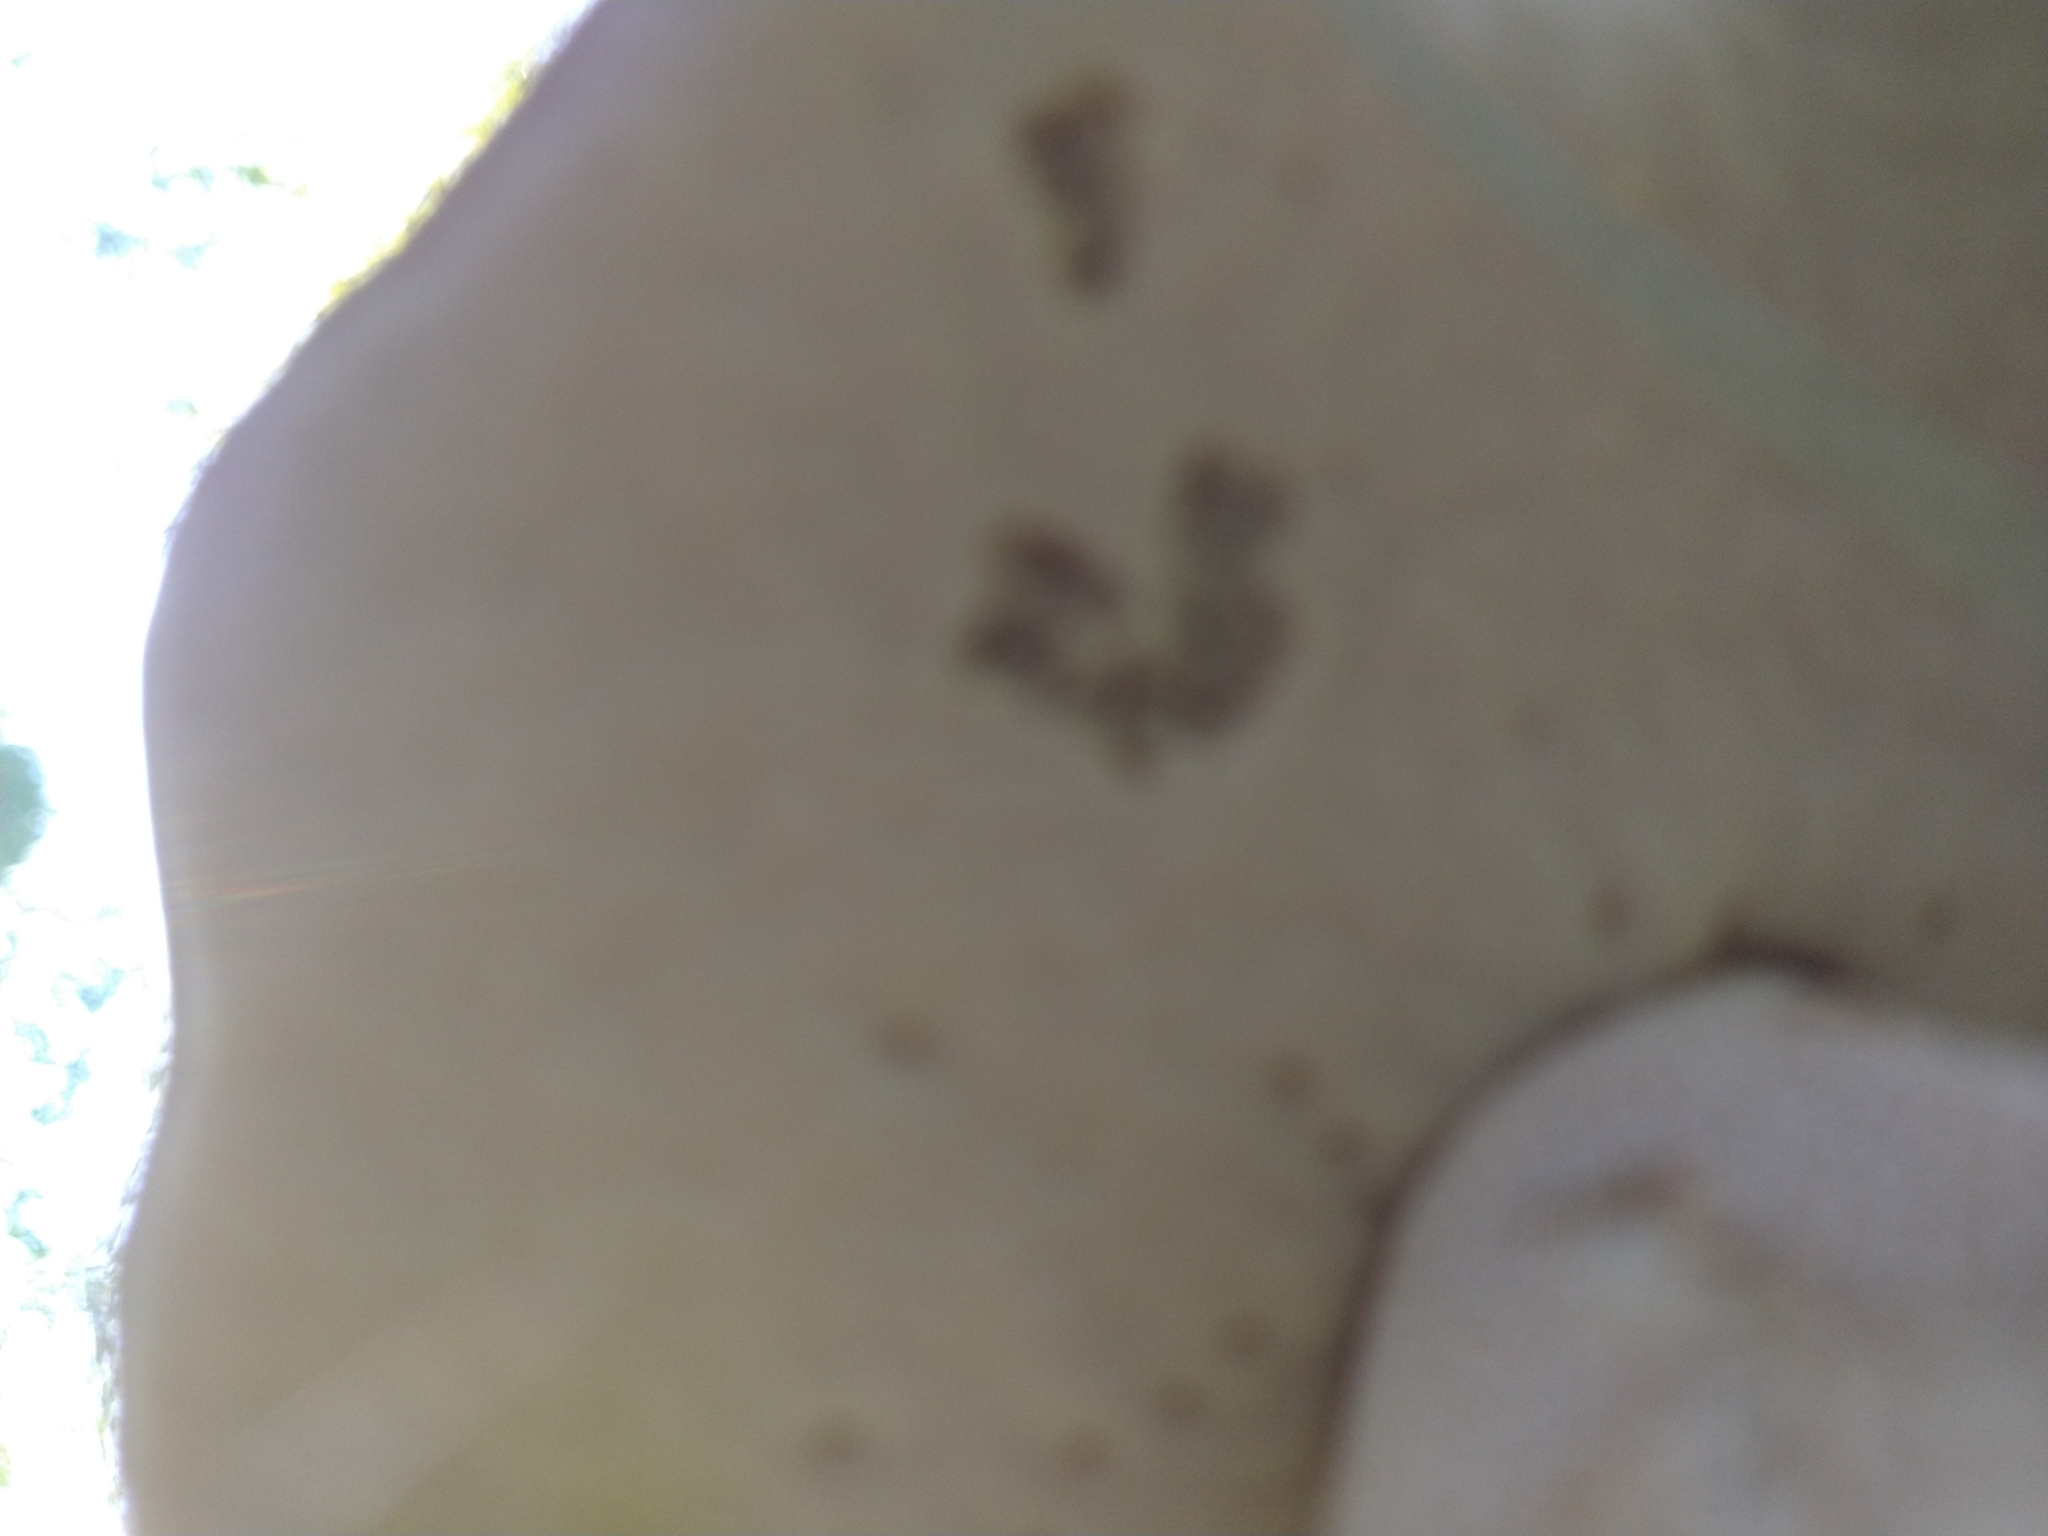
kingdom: Fungi
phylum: Basidiomycota
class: Agaricomycetes
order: Boletales
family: Boletaceae
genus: Boletus
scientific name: Boletus edulis
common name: Cep
